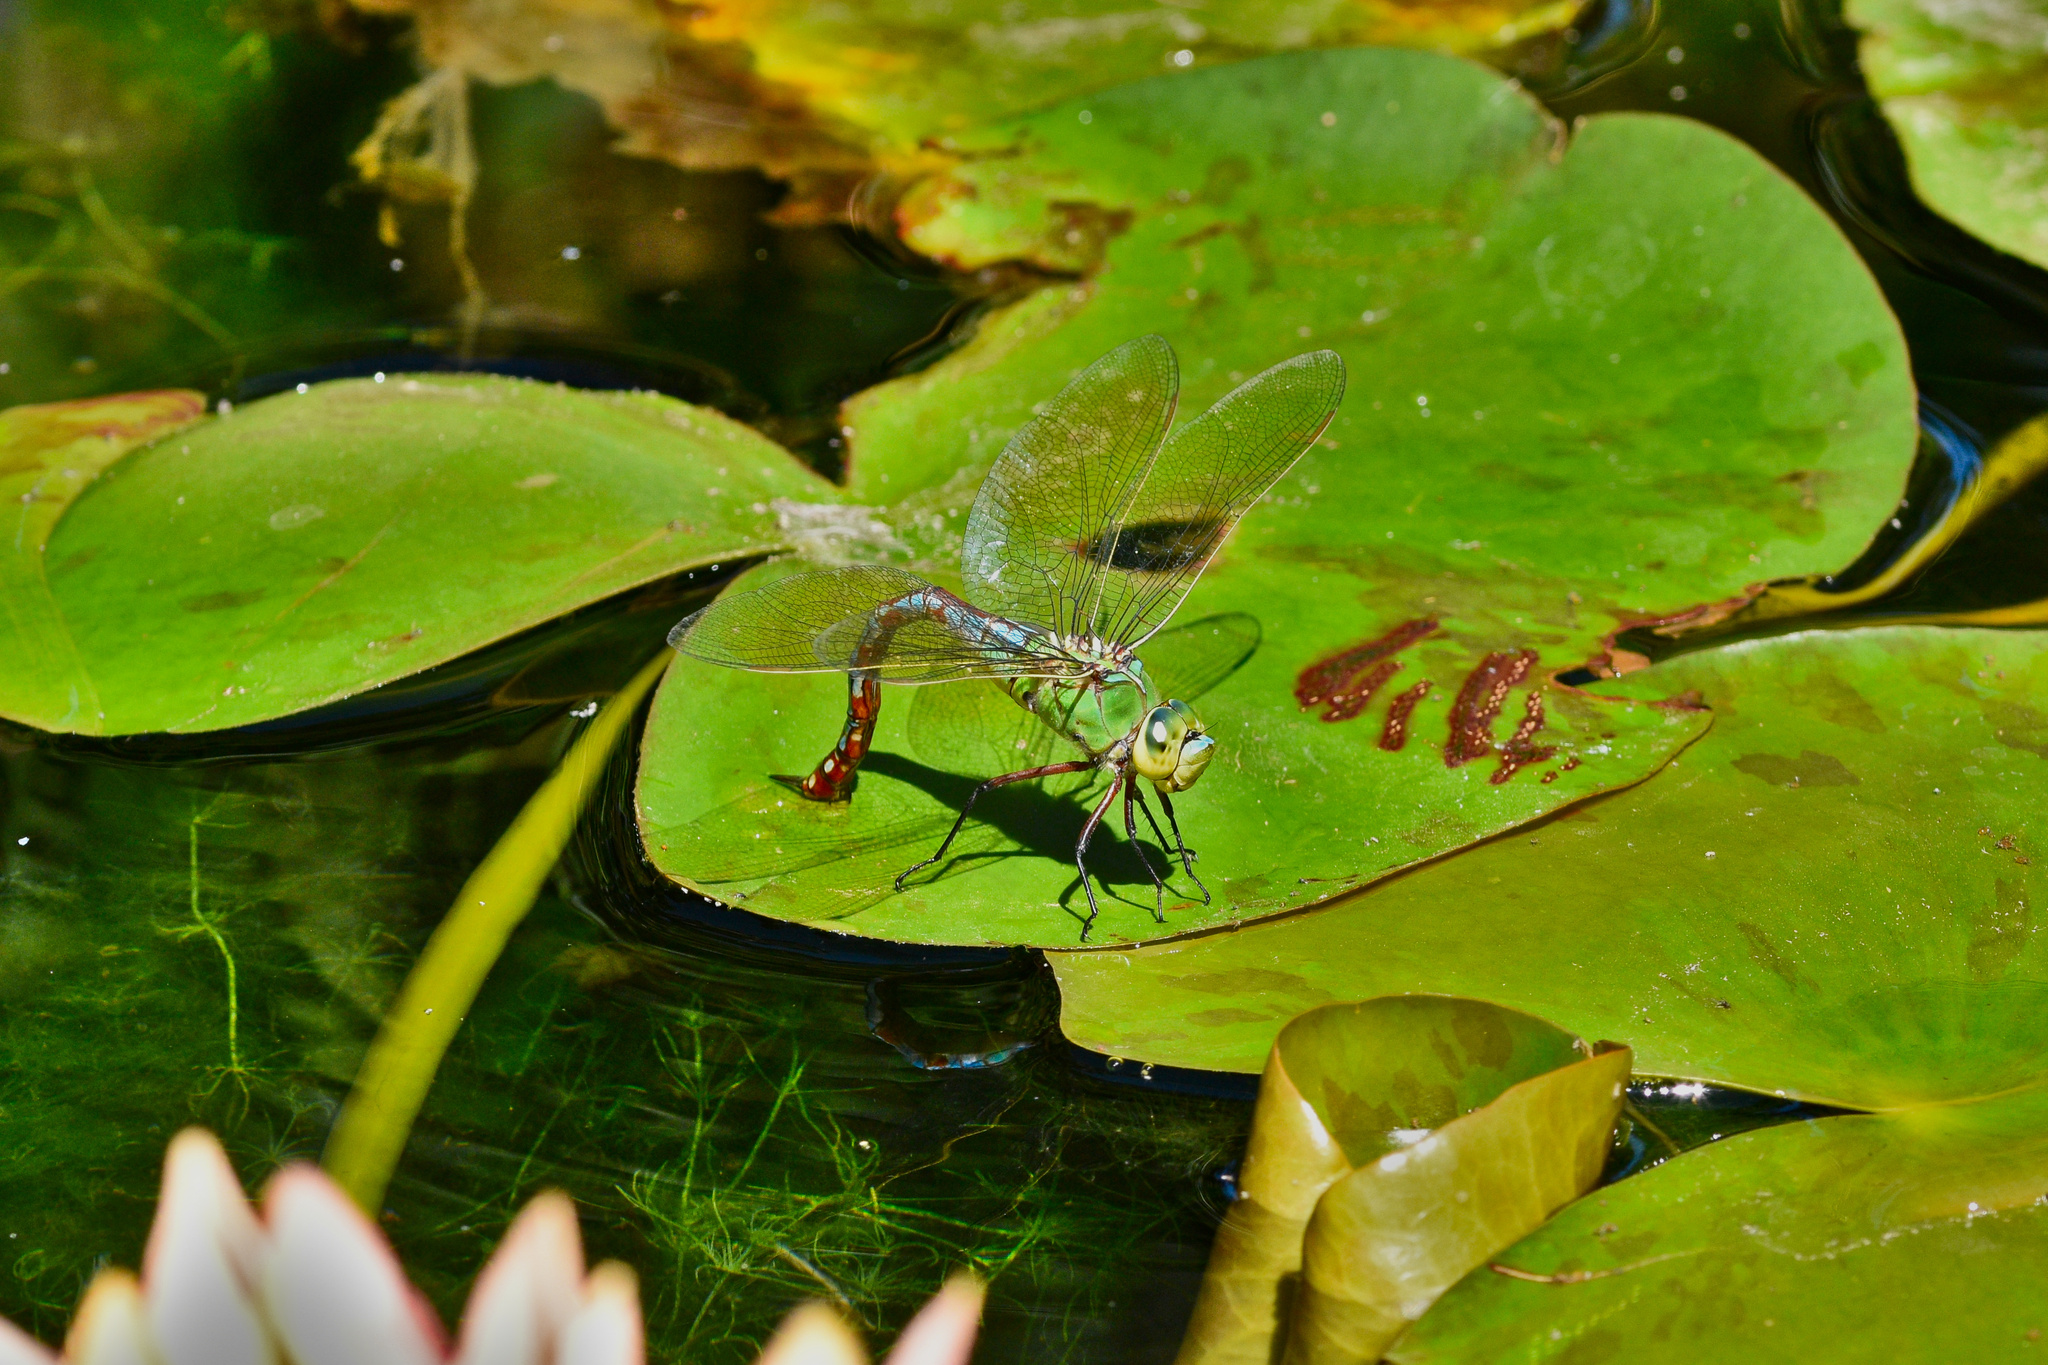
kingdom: Animalia
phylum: Arthropoda
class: Insecta
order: Odonata
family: Aeshnidae
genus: Anax
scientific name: Anax imperator
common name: Emperor dragonfly
